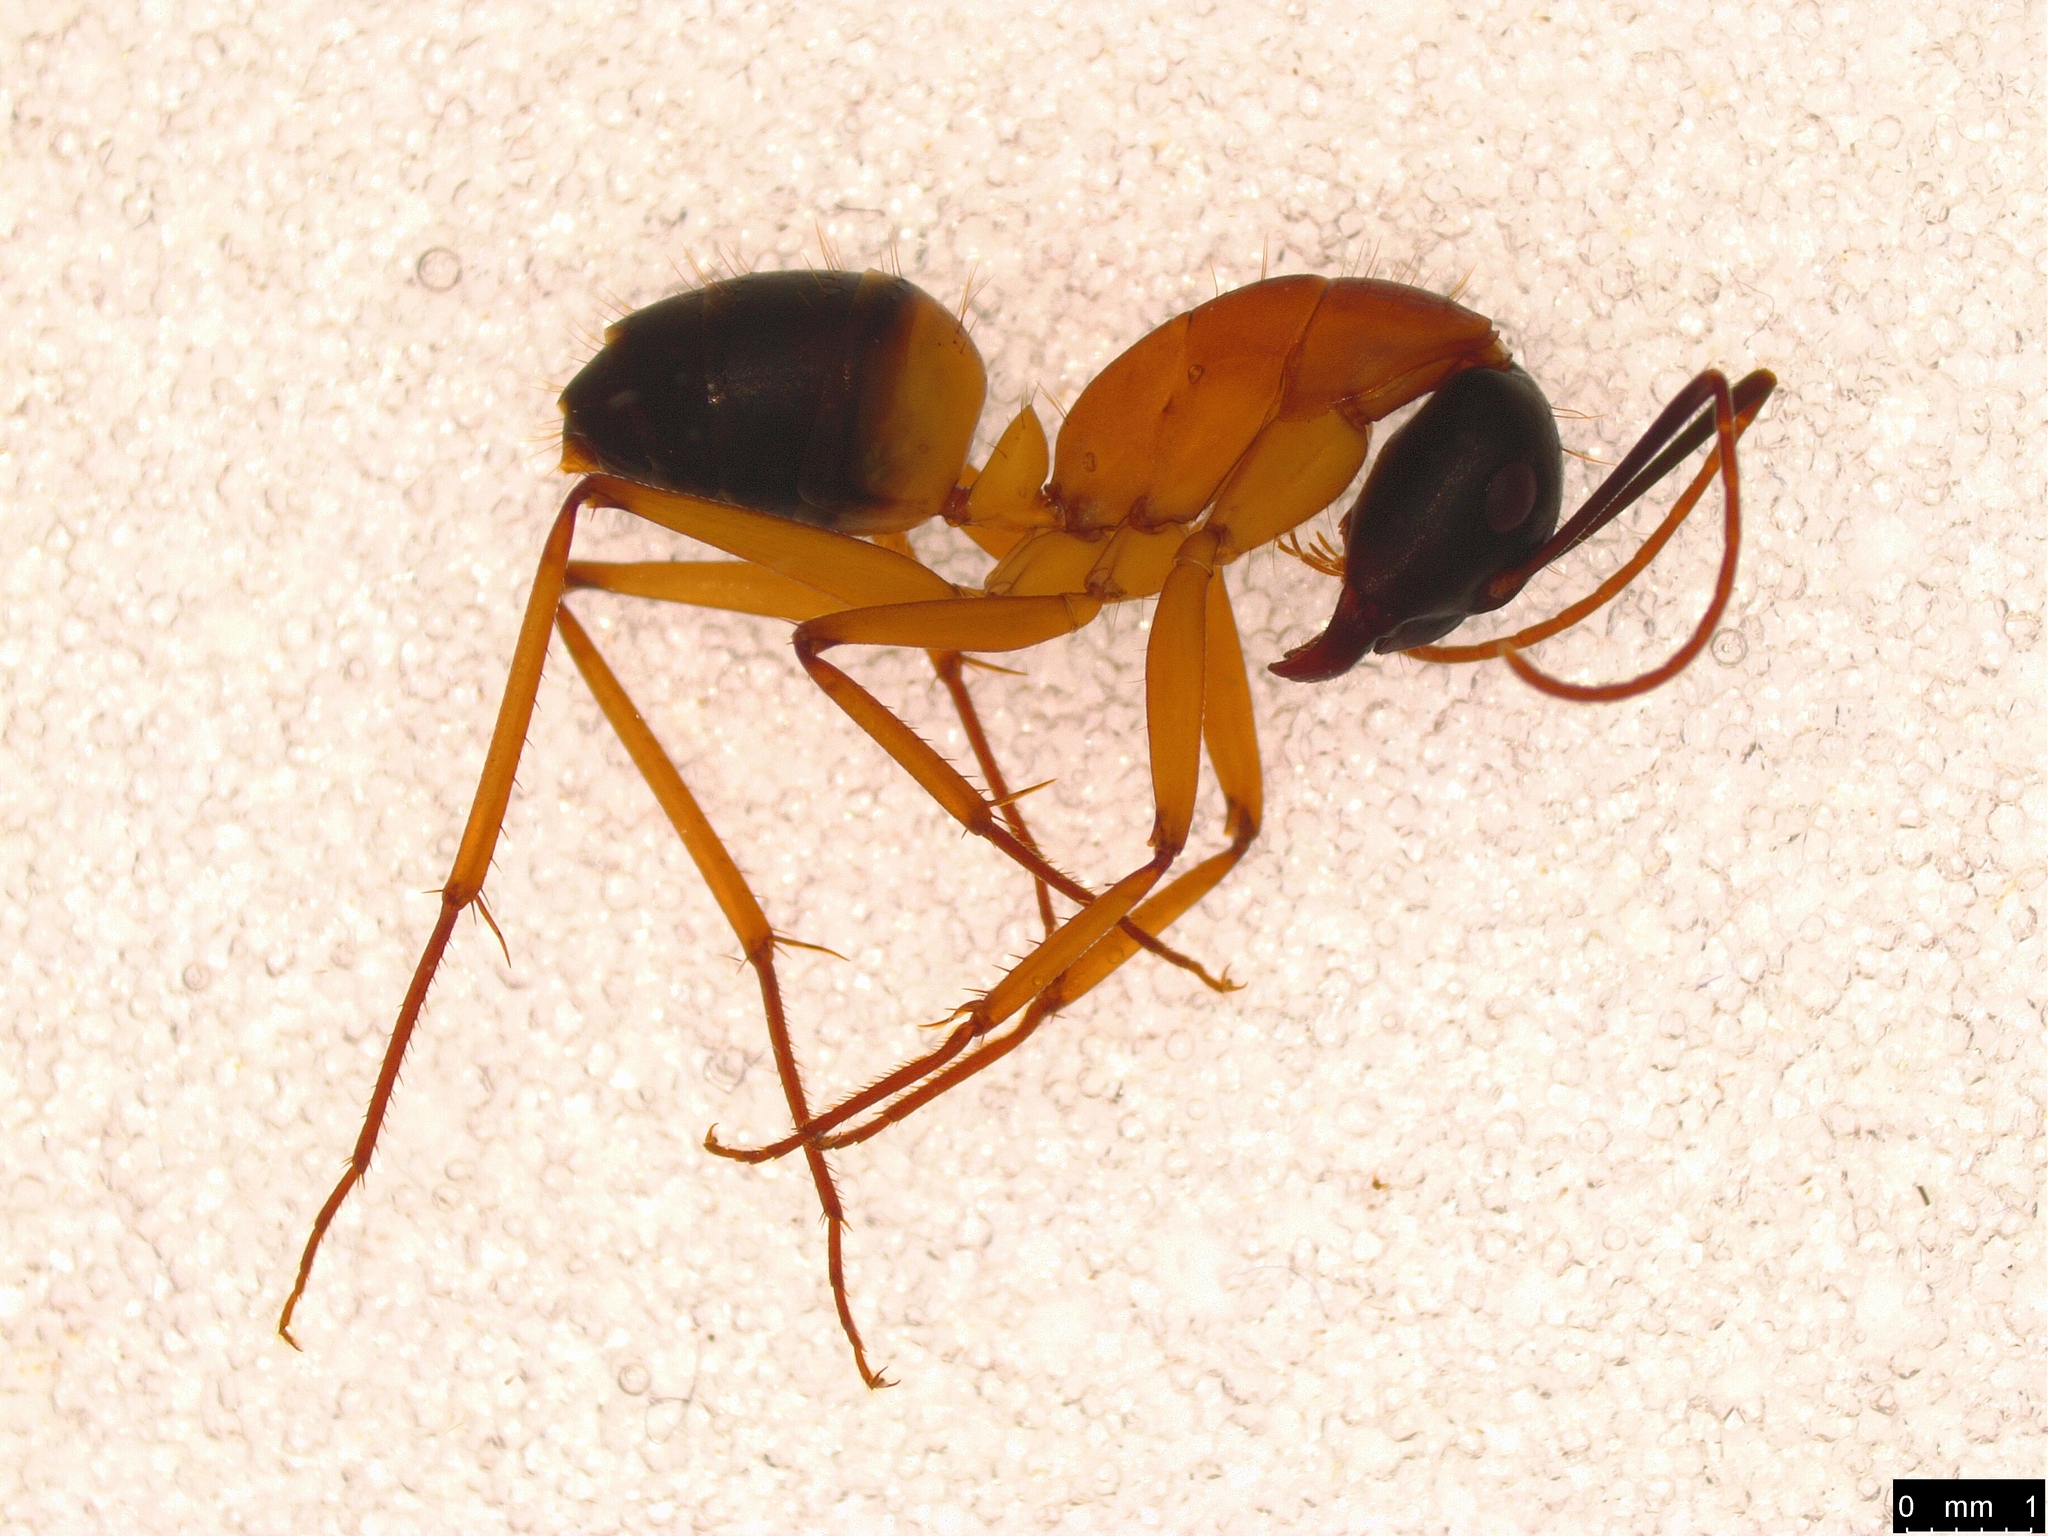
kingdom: Animalia
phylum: Arthropoda
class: Insecta
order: Hymenoptera
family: Formicidae
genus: Camponotus
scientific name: Camponotus consobrinus
